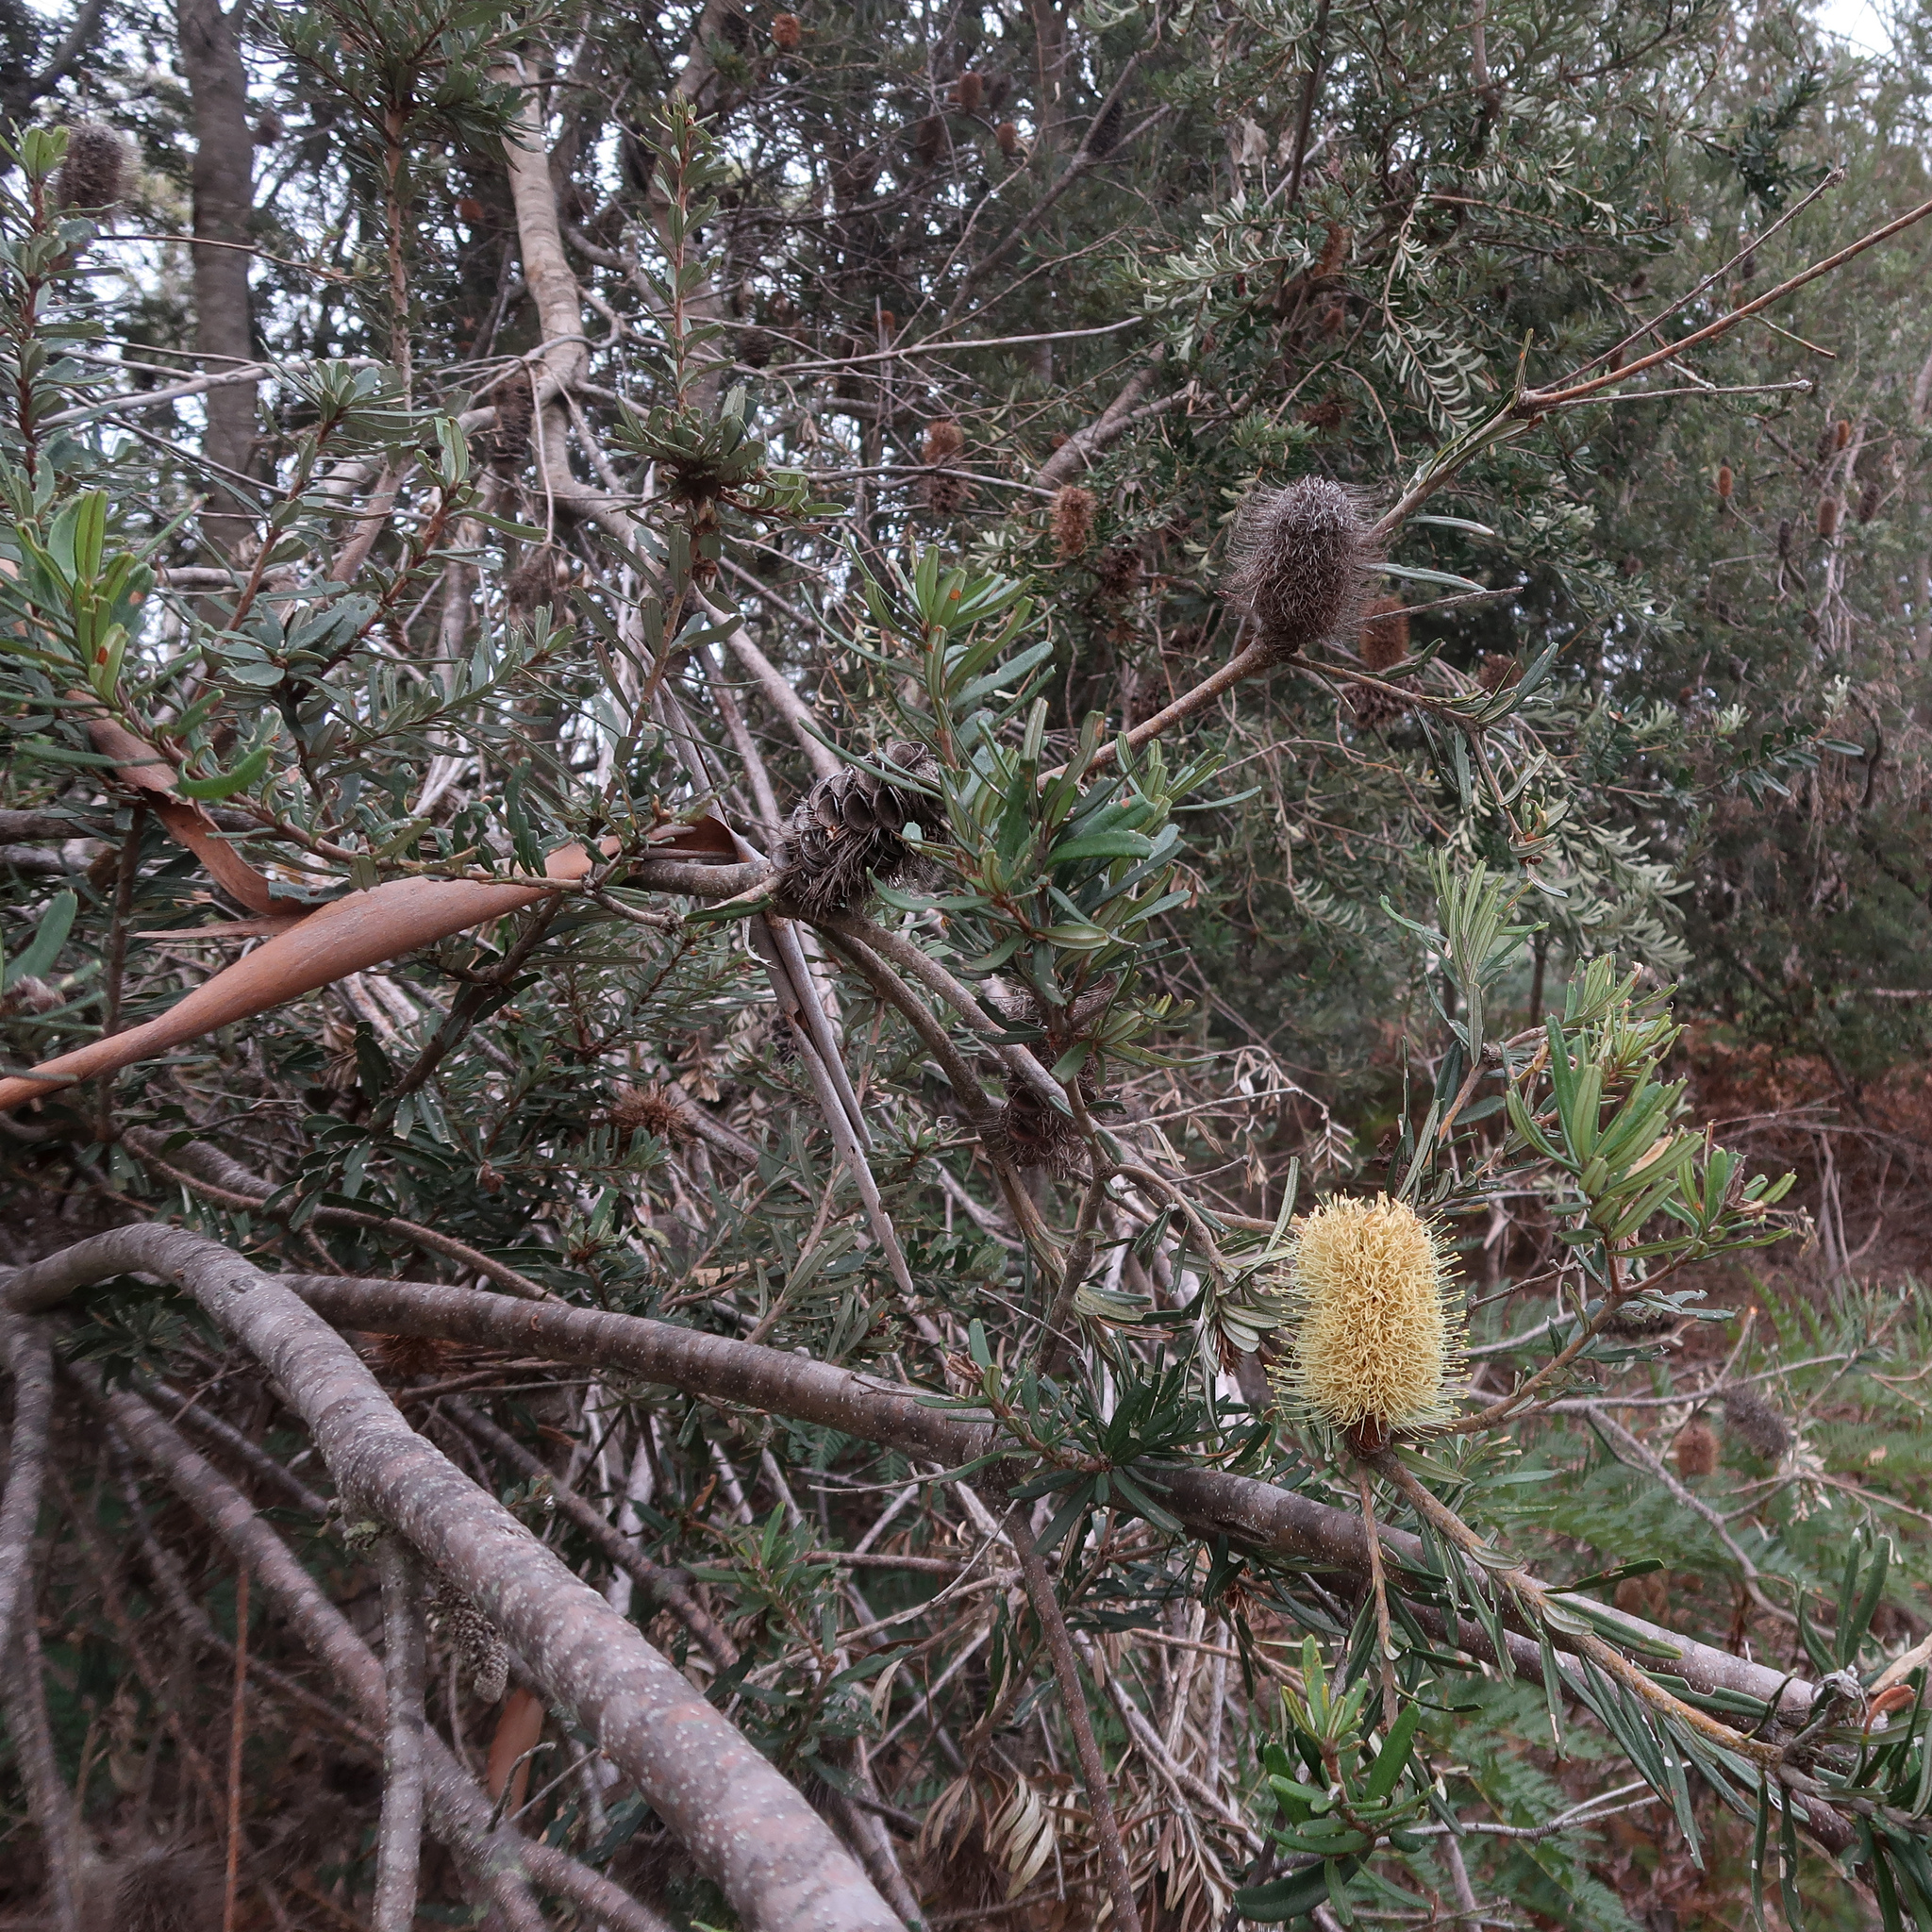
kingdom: Plantae
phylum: Tracheophyta
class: Magnoliopsida
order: Proteales
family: Proteaceae
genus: Banksia
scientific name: Banksia marginata
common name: Silver banksia
